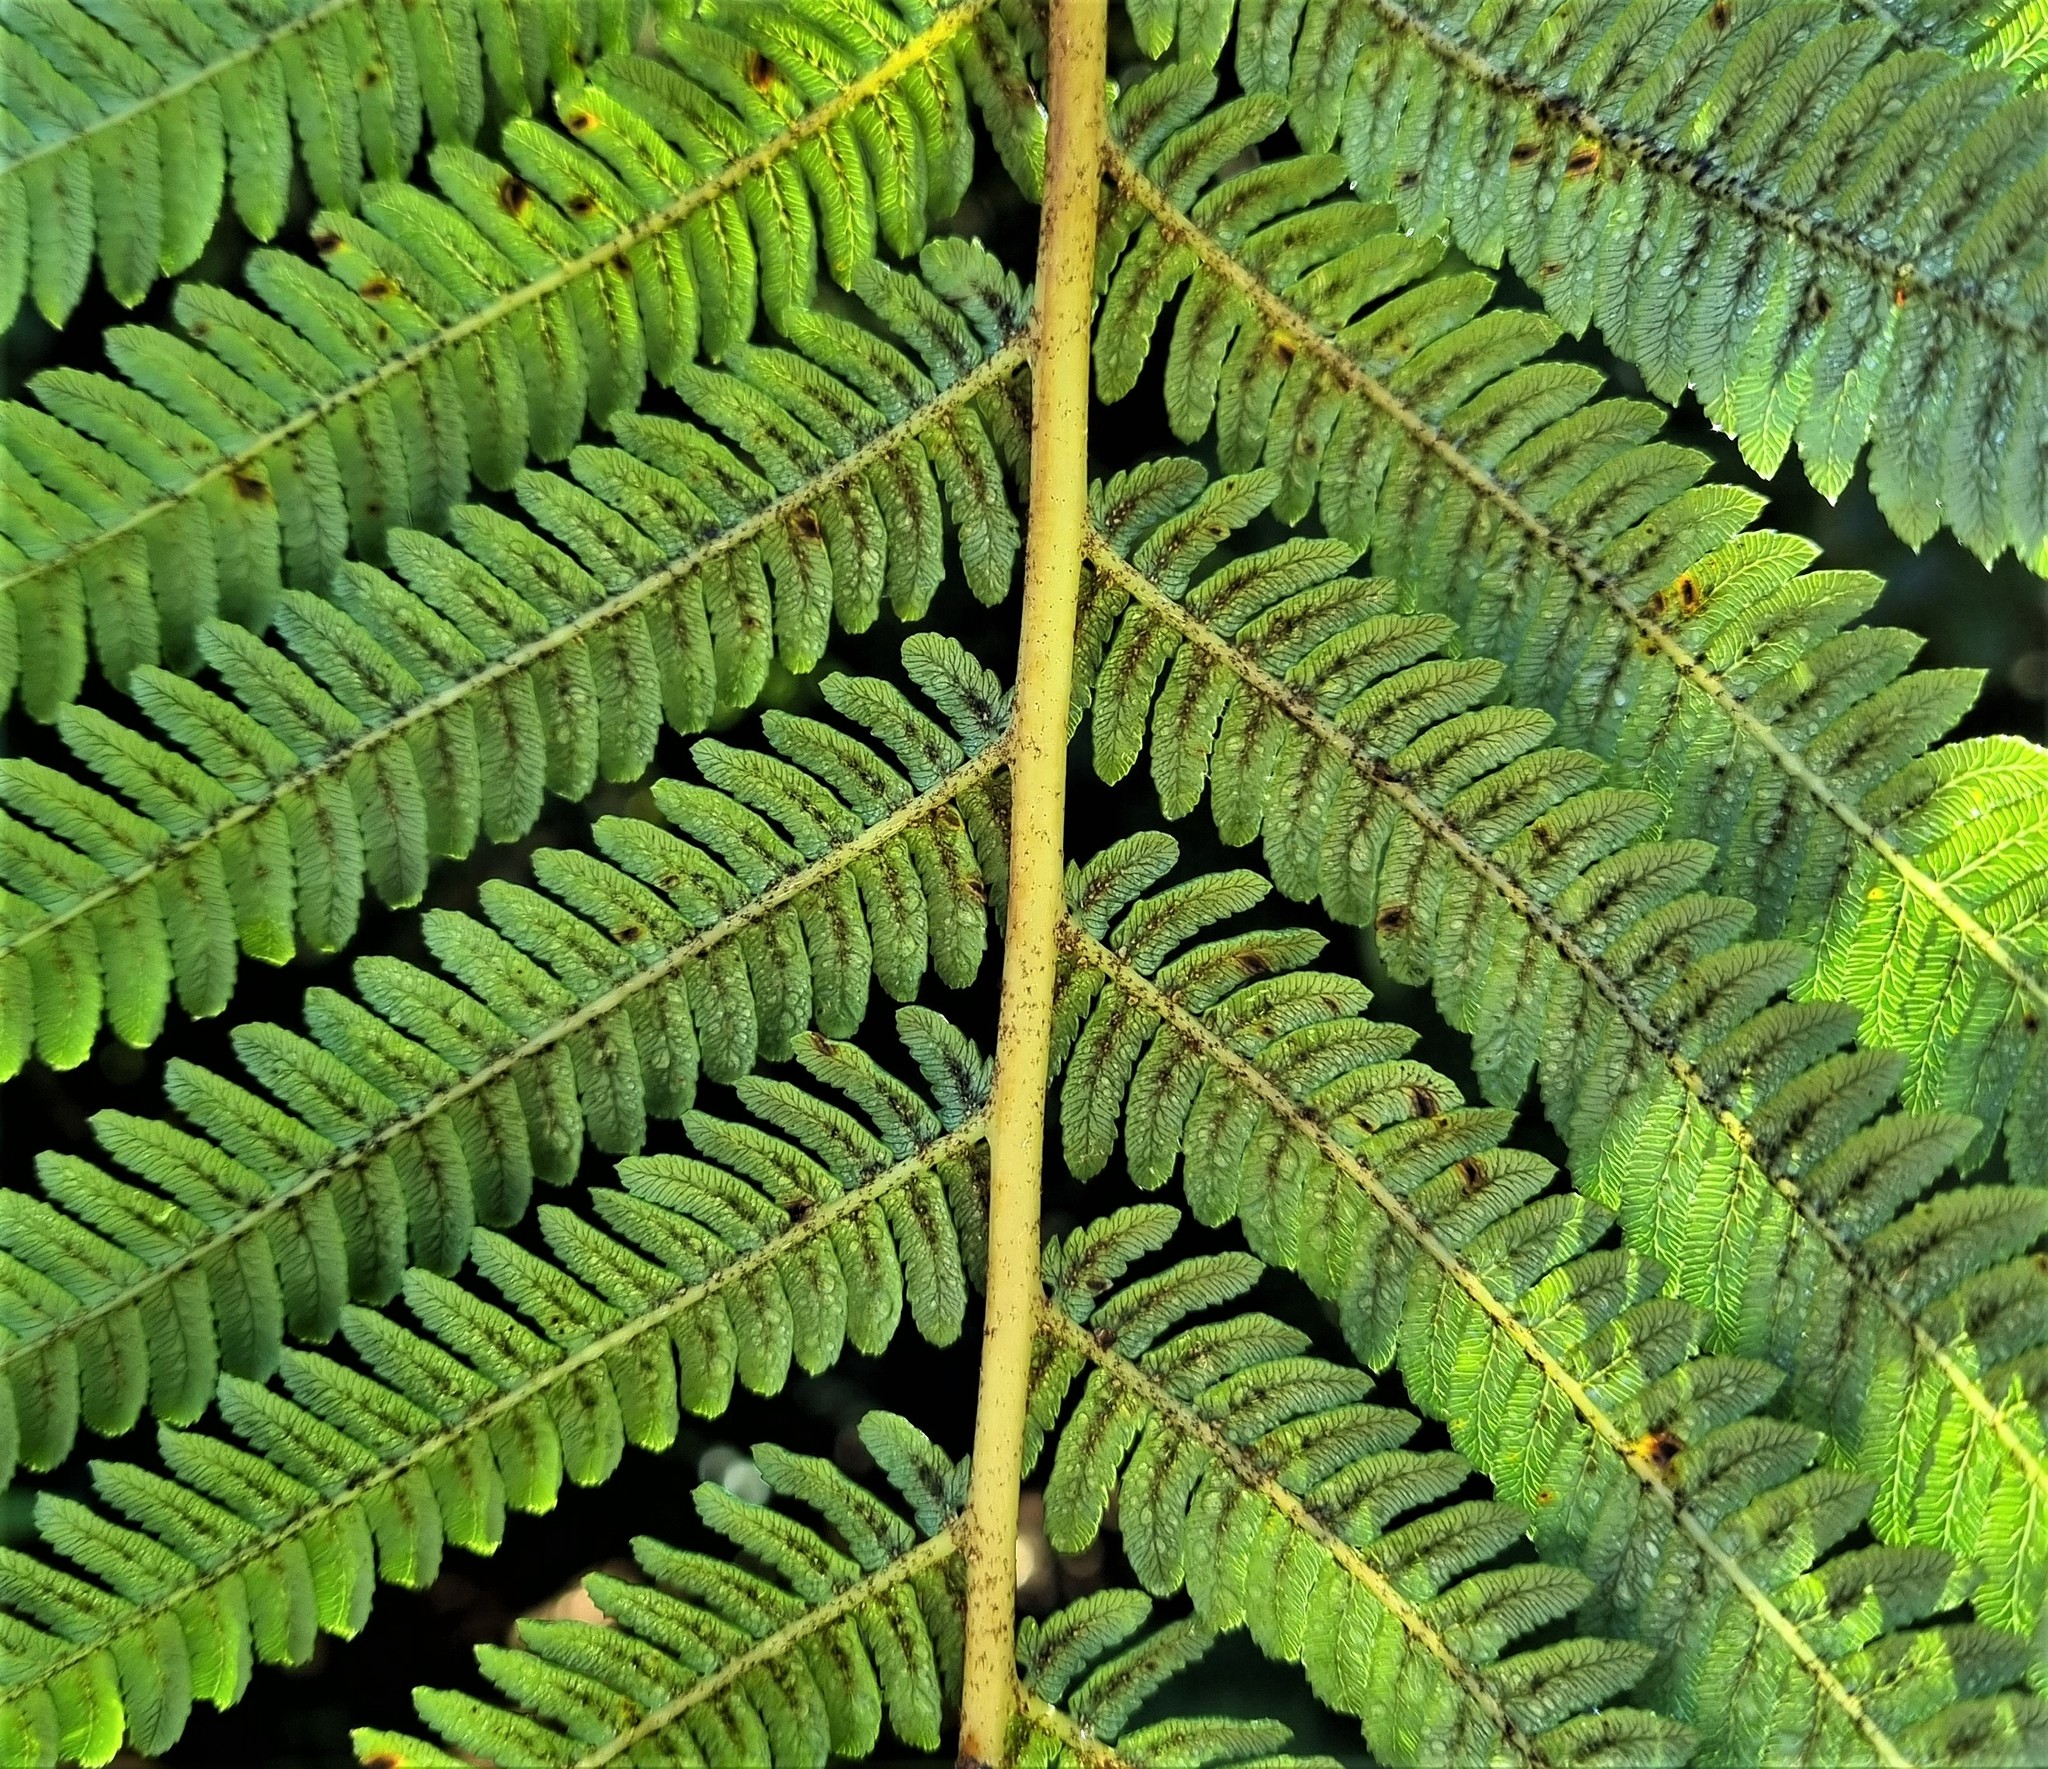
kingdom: Plantae
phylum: Tracheophyta
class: Polypodiopsida
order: Cyatheales
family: Cyatheaceae
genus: Sphaeropteris
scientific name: Sphaeropteris medullaris
